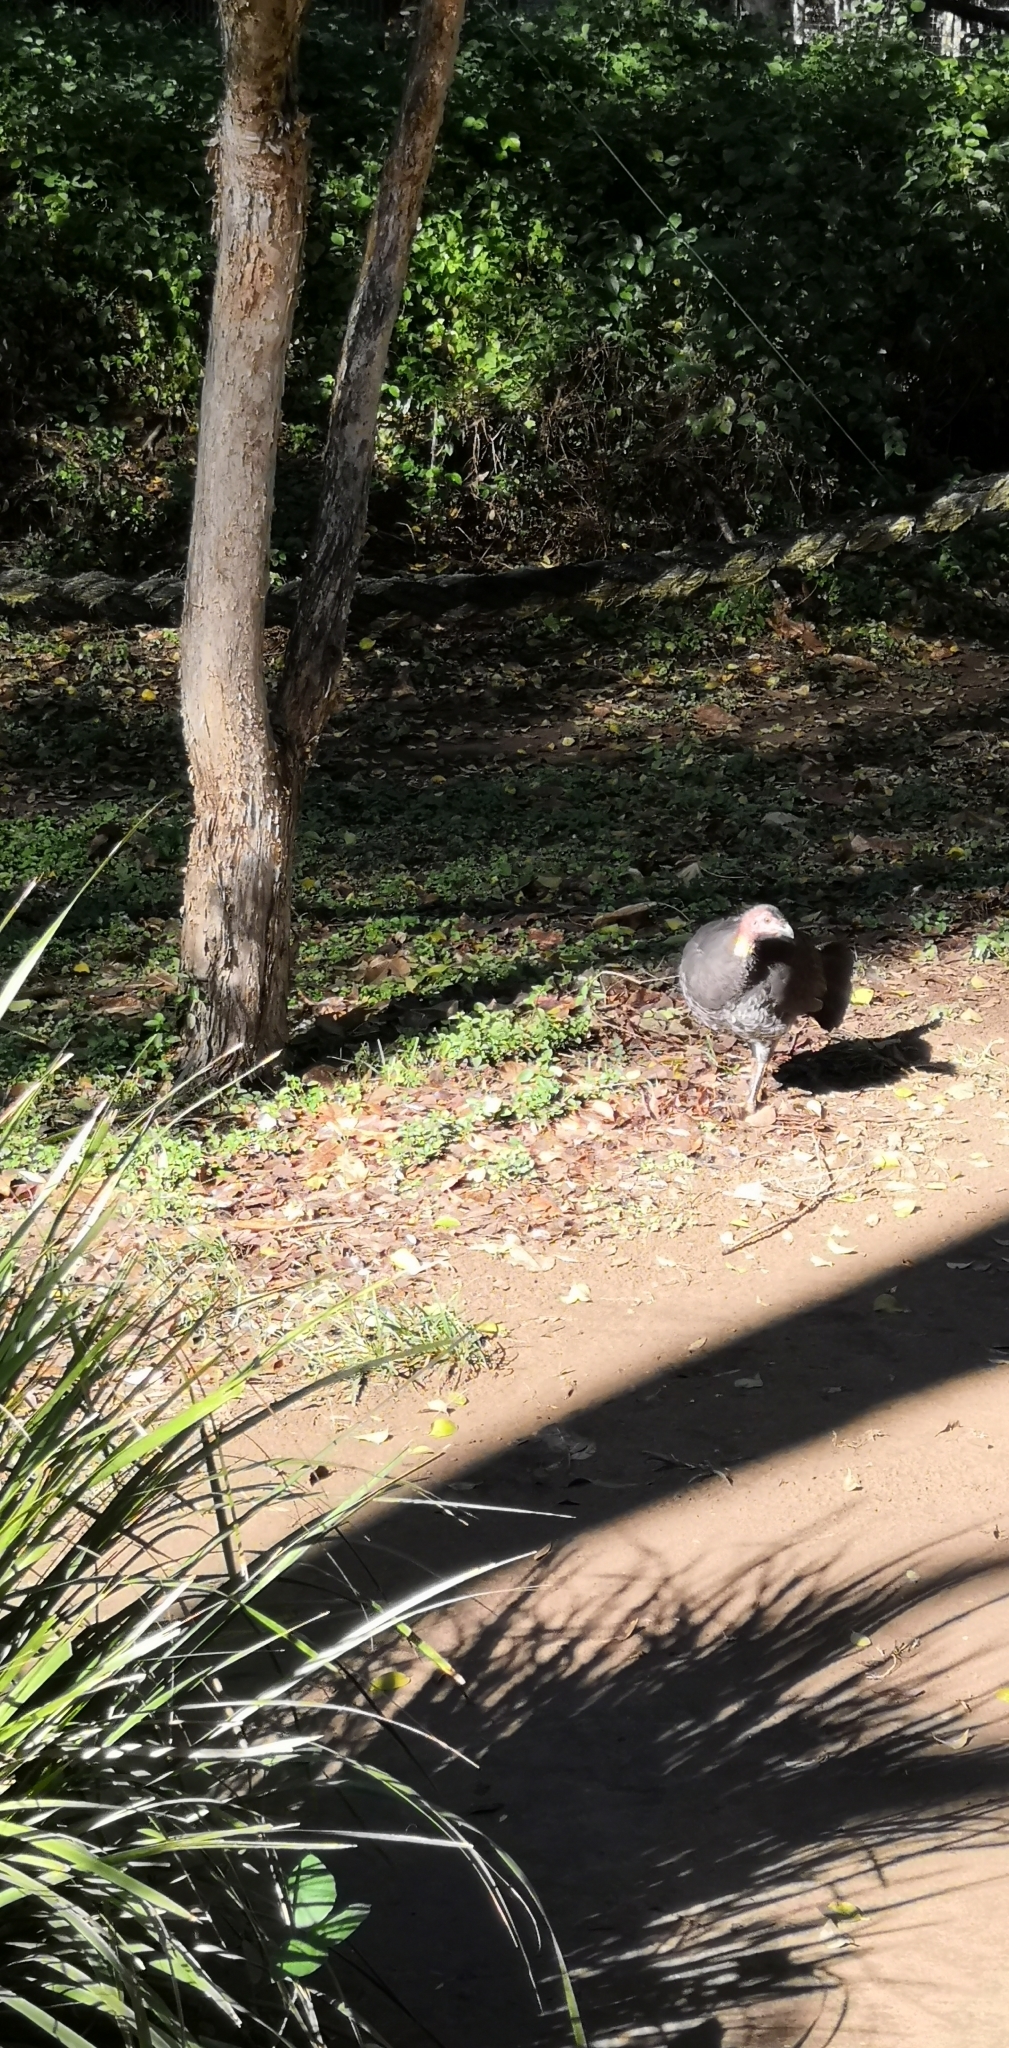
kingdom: Animalia
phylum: Chordata
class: Aves
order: Galliformes
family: Megapodiidae
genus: Alectura
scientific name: Alectura lathami
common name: Australian brushturkey
